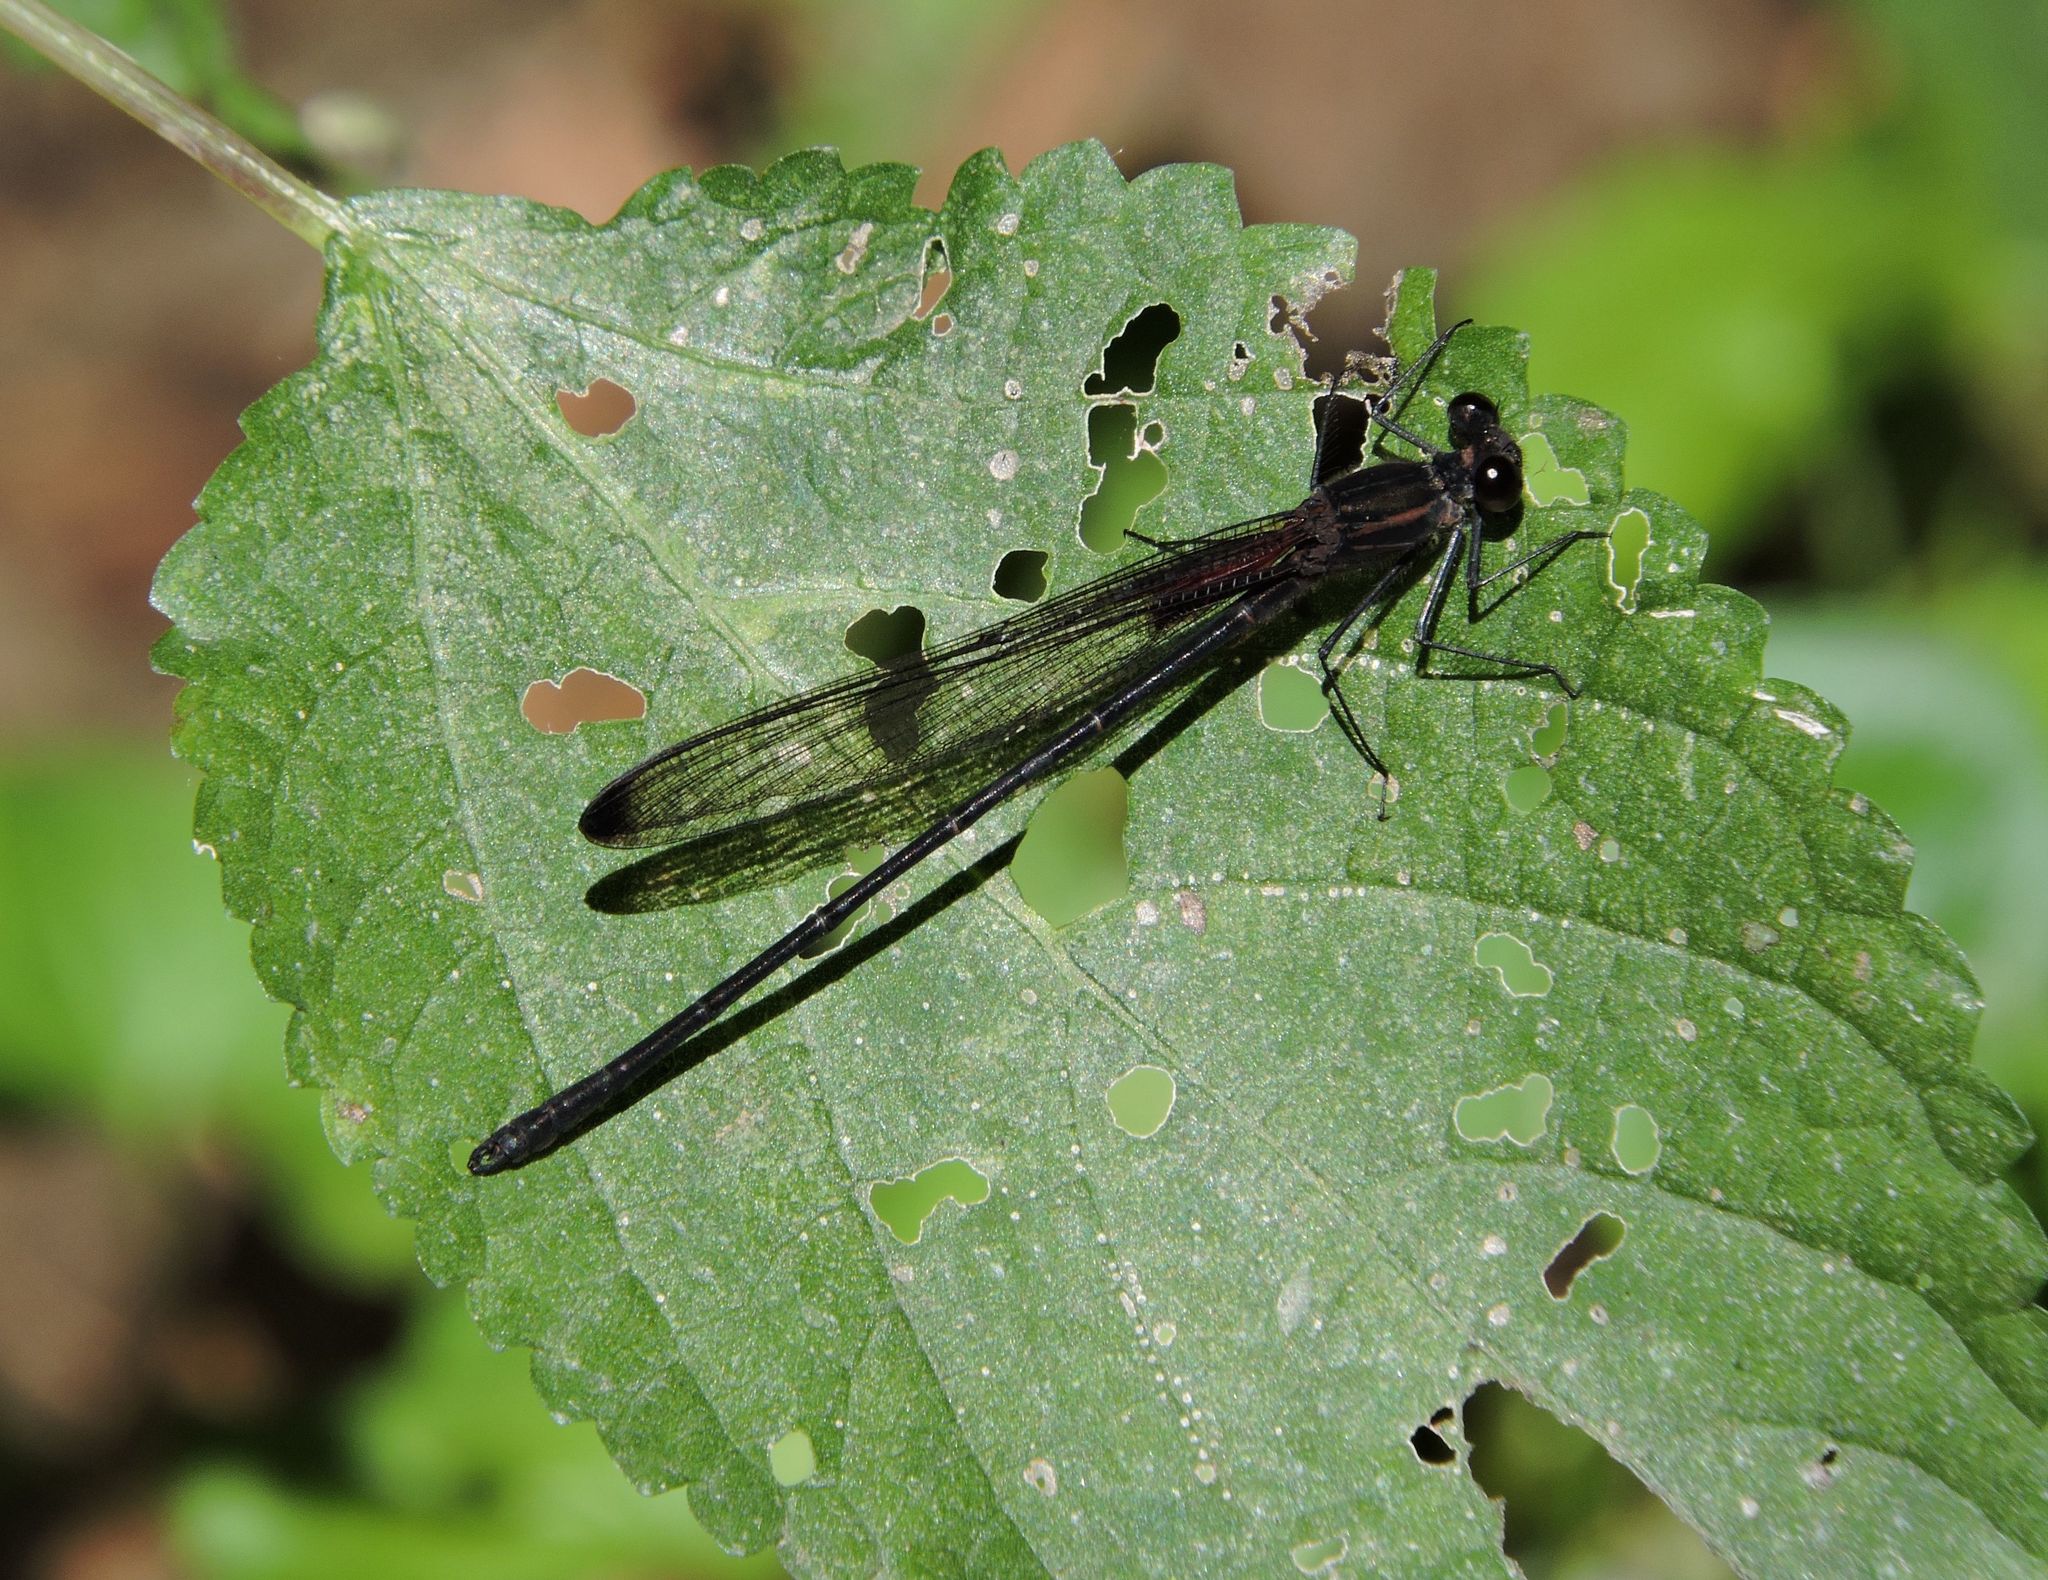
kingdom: Animalia
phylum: Arthropoda
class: Insecta
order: Odonata
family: Calopterygidae
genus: Hetaerina
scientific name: Hetaerina titia
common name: Smoky rubyspot
